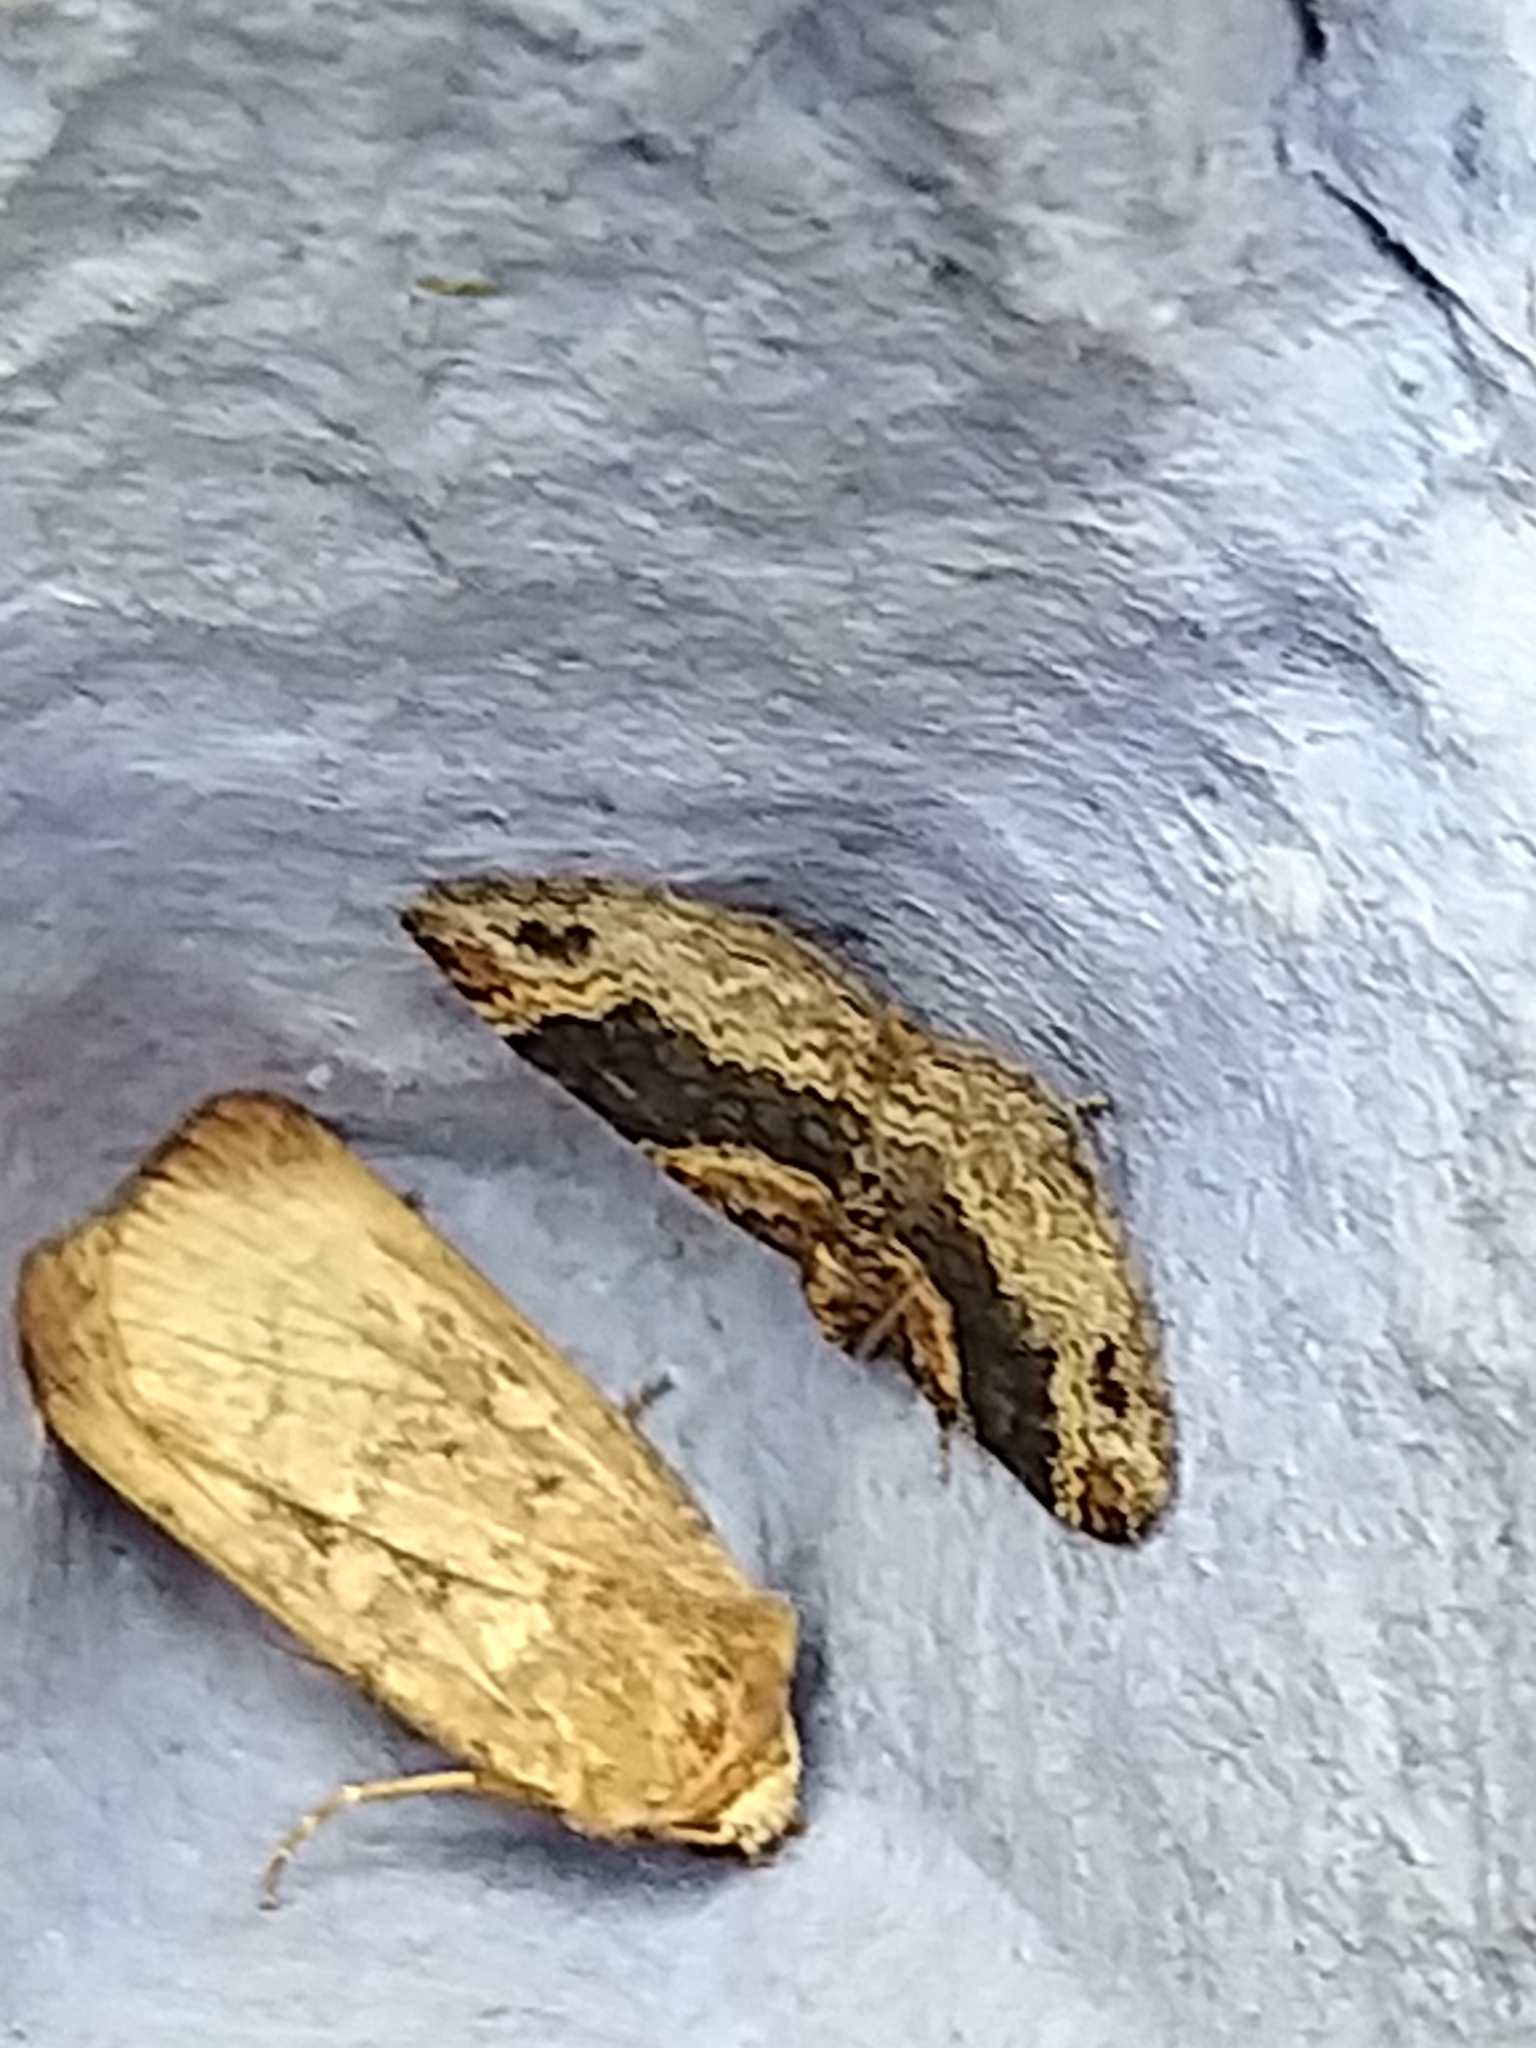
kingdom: Animalia
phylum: Arthropoda
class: Insecta
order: Lepidoptera
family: Geometridae
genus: Xanthorhoe
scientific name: Xanthorhoe ferrugata
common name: Dark-barred twin-spot carpet
